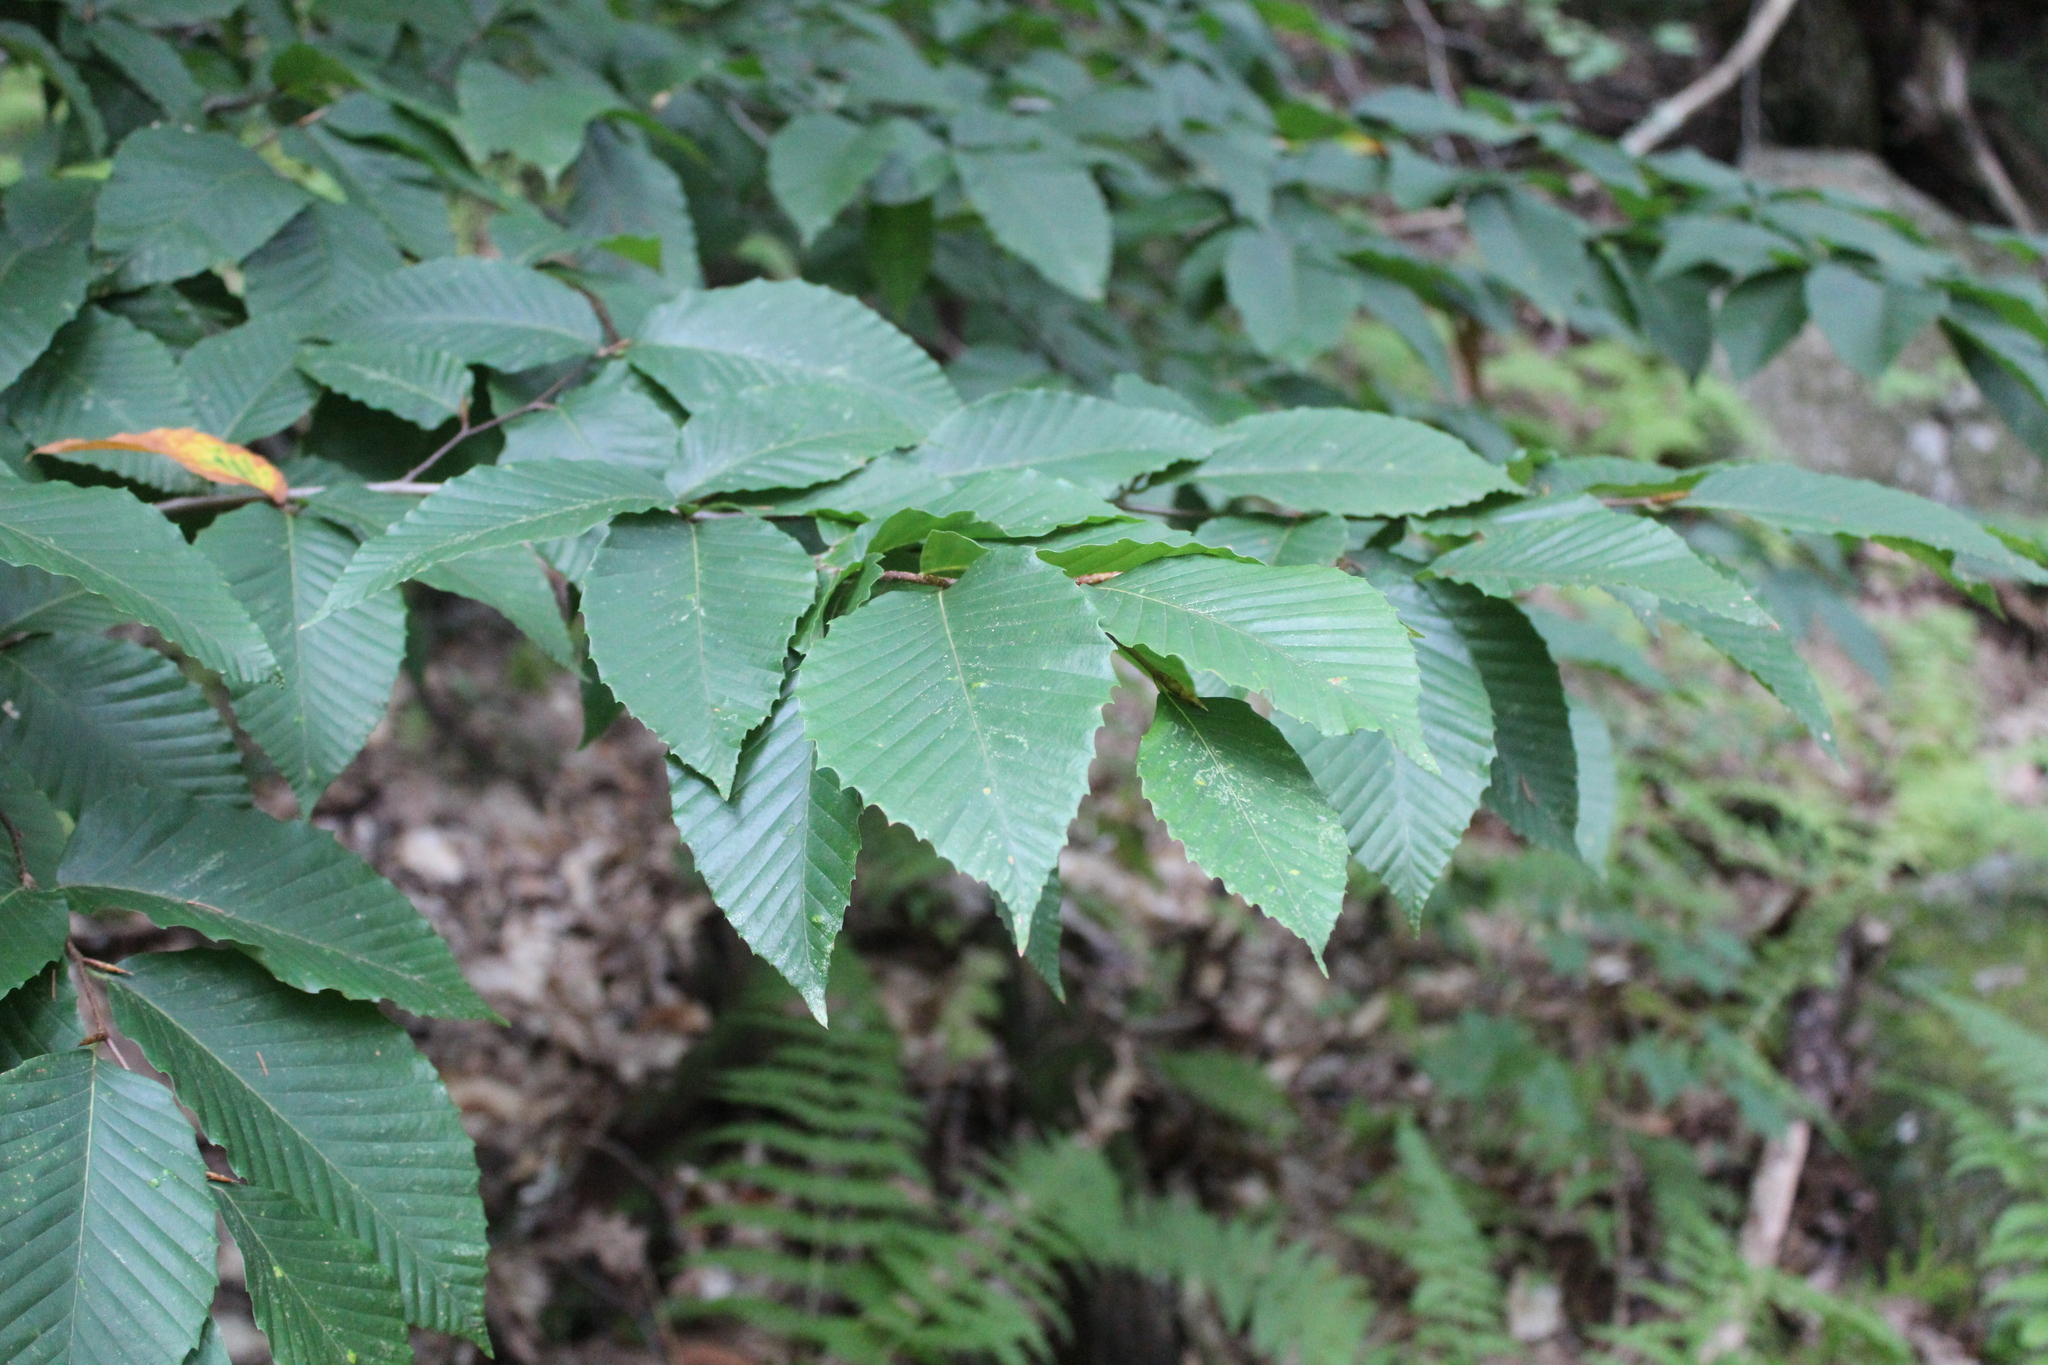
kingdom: Plantae
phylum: Tracheophyta
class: Magnoliopsida
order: Fagales
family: Fagaceae
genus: Fagus
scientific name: Fagus grandifolia
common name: American beech
